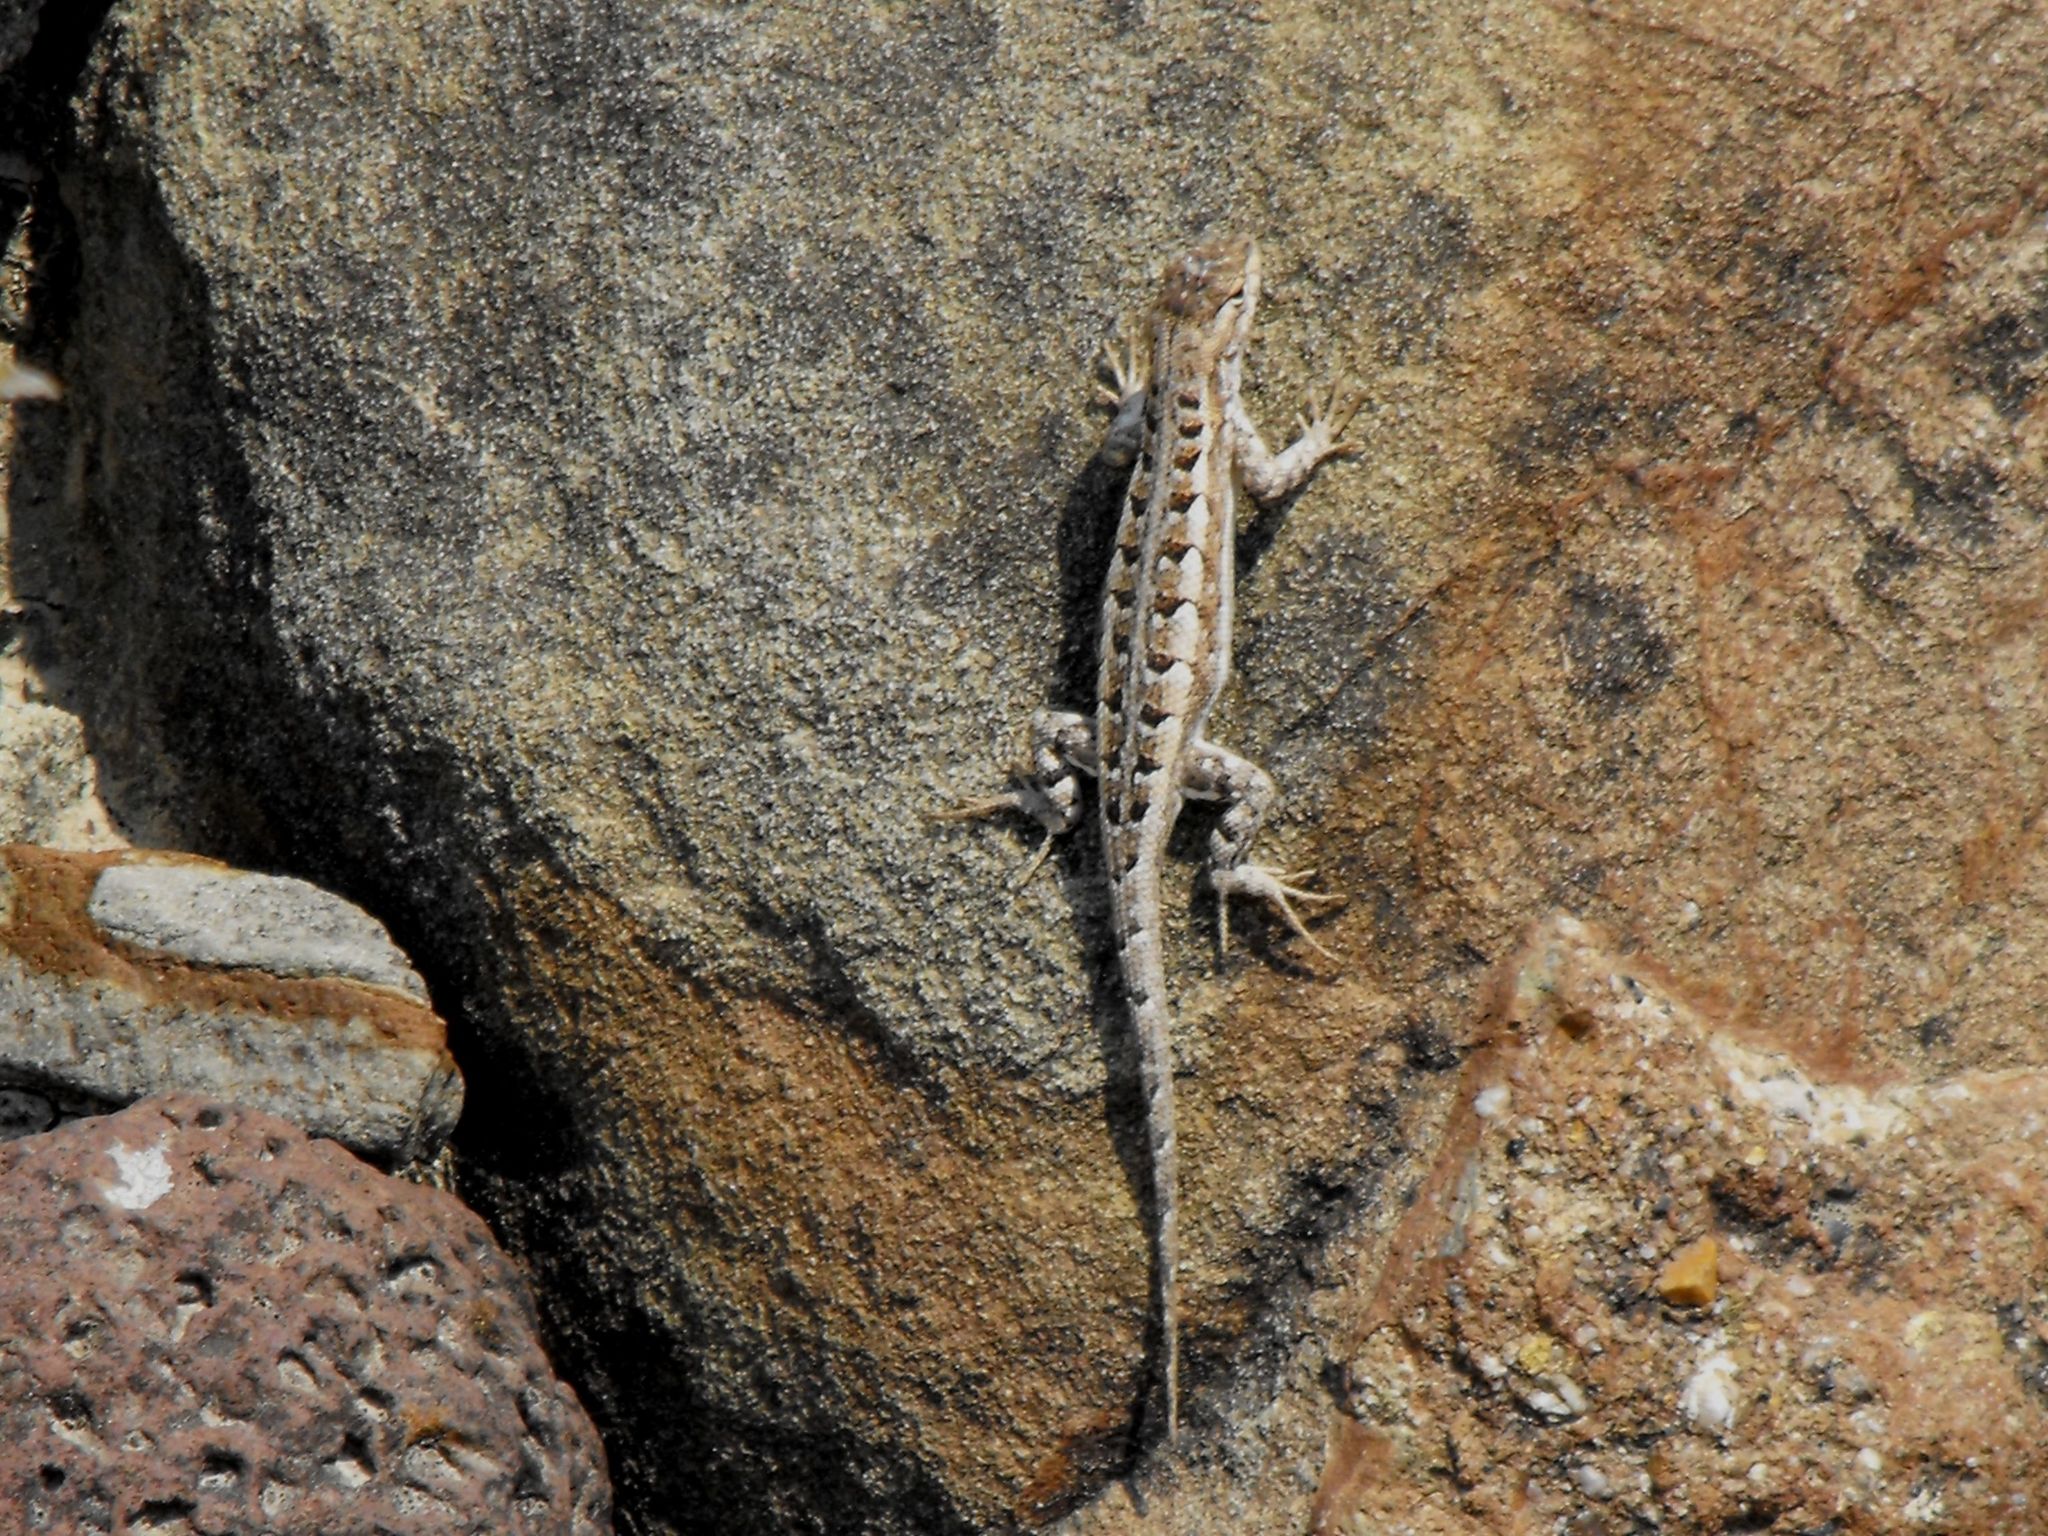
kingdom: Animalia
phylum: Chordata
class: Squamata
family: Phrynosomatidae
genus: Sceloporus
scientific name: Sceloporus jalapae
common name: Jalapa spiny lizard
